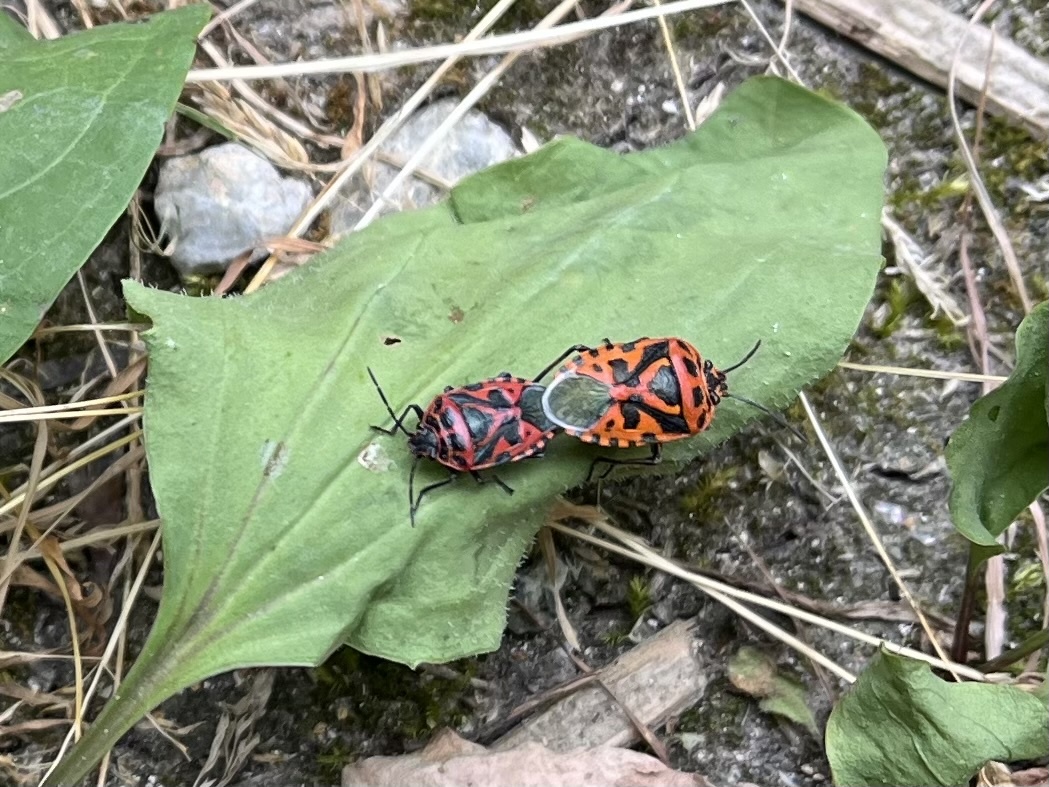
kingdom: Animalia
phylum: Arthropoda
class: Insecta
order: Hemiptera
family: Pentatomidae
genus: Eurydema
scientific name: Eurydema ventralis
